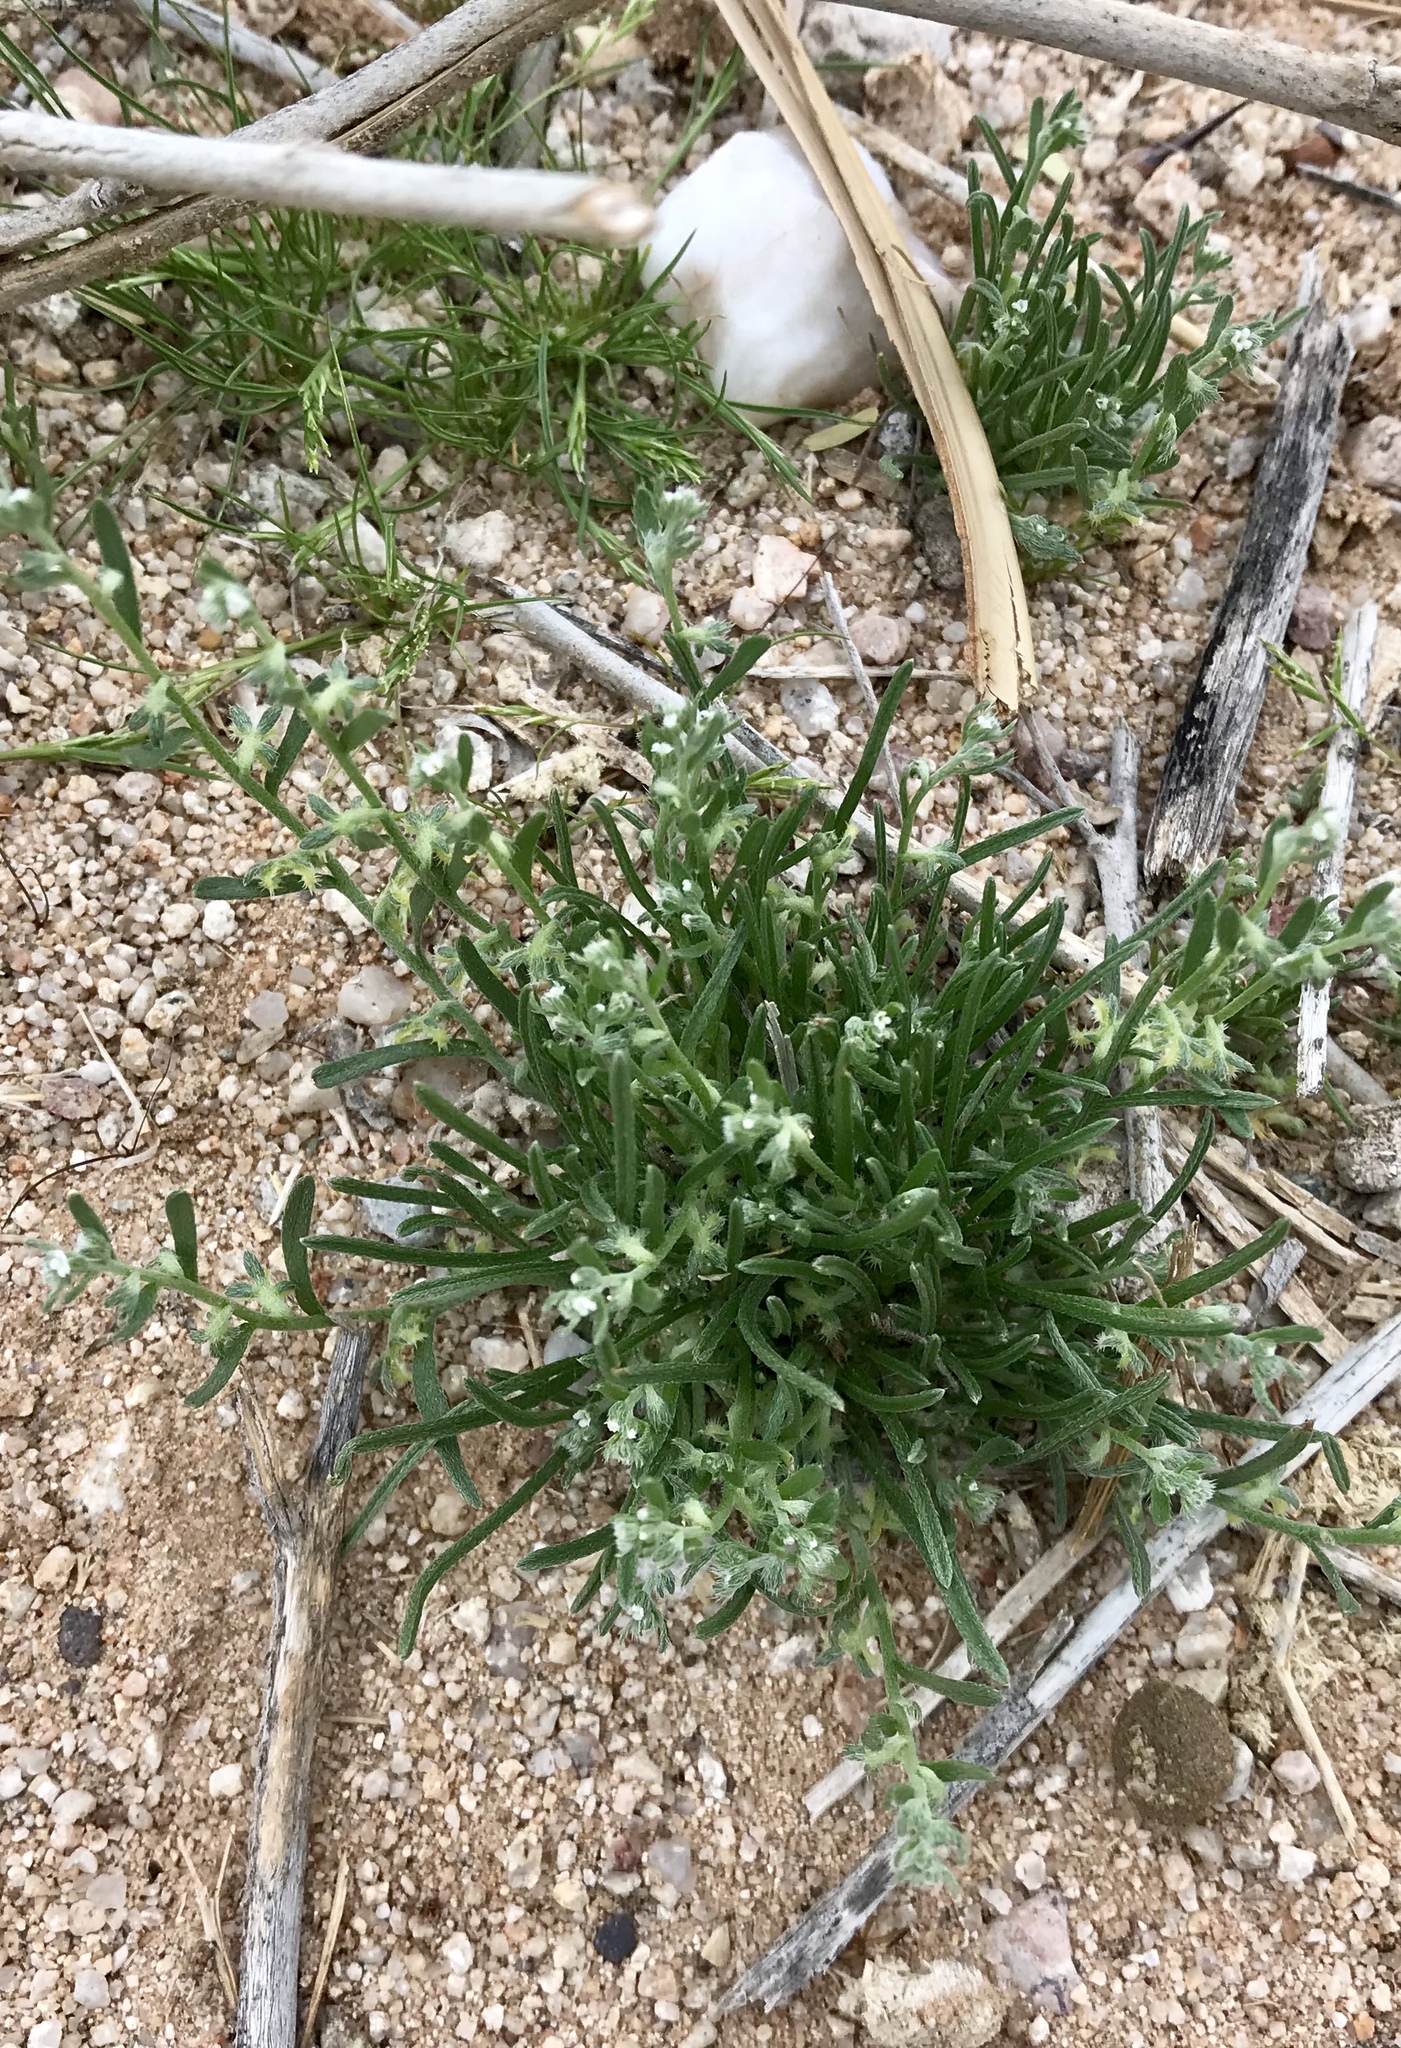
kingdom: Plantae
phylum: Tracheophyta
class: Magnoliopsida
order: Boraginales
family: Boraginaceae
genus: Pectocarya
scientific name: Pectocarya heterocarpa
